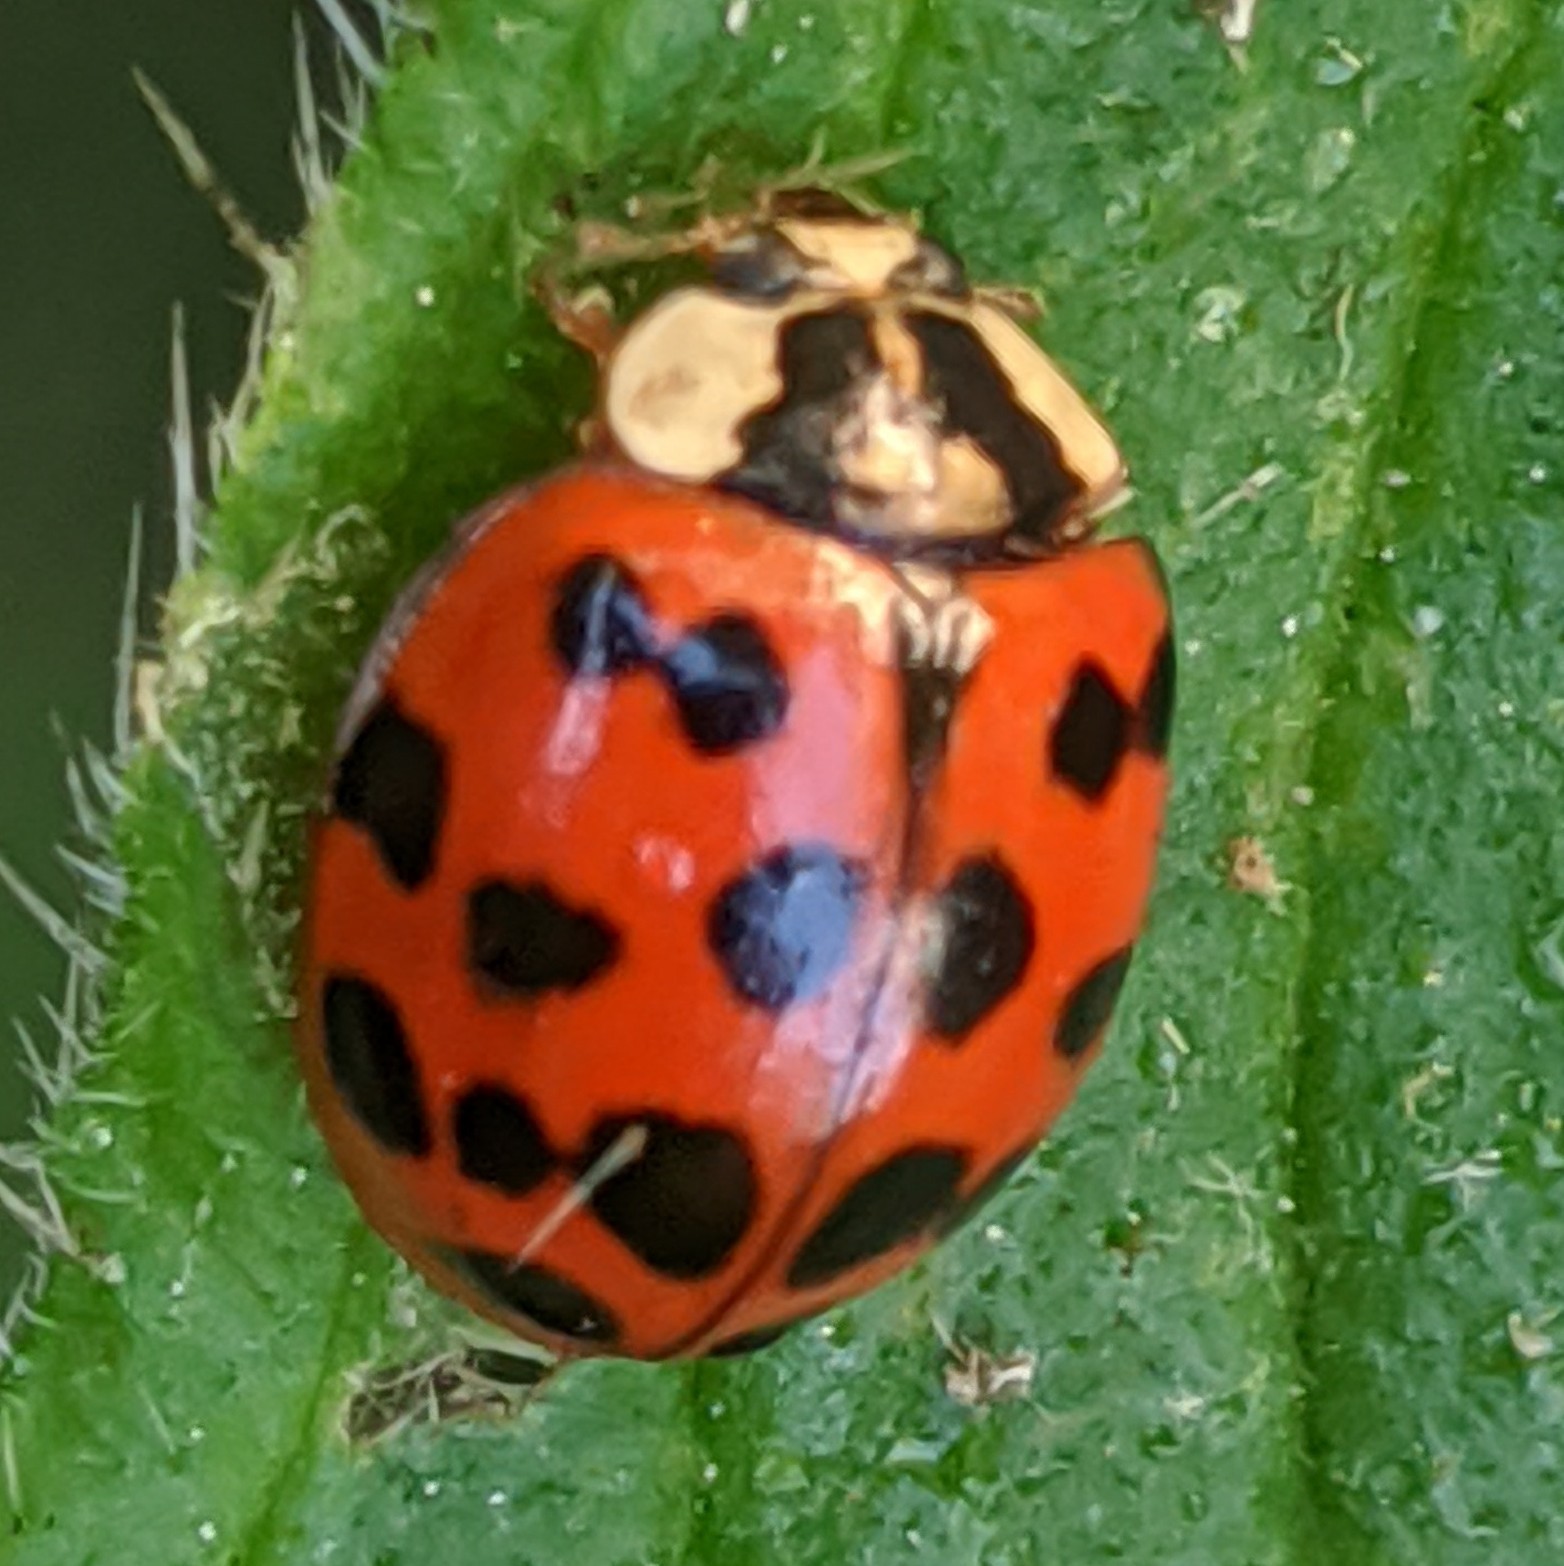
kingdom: Animalia
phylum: Arthropoda
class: Insecta
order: Coleoptera
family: Coccinellidae
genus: Harmonia
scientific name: Harmonia axyridis
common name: Harlequin ladybird
